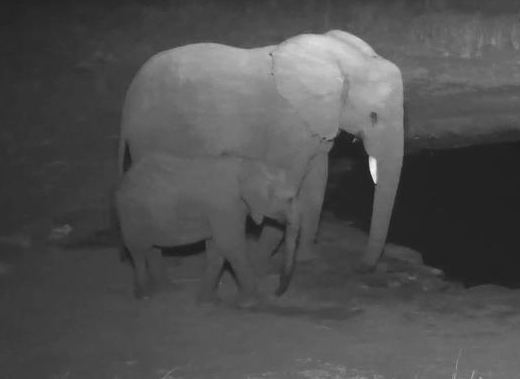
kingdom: Animalia
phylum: Chordata
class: Mammalia
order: Proboscidea
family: Elephantidae
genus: Loxodonta
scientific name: Loxodonta africana
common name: African elephant
